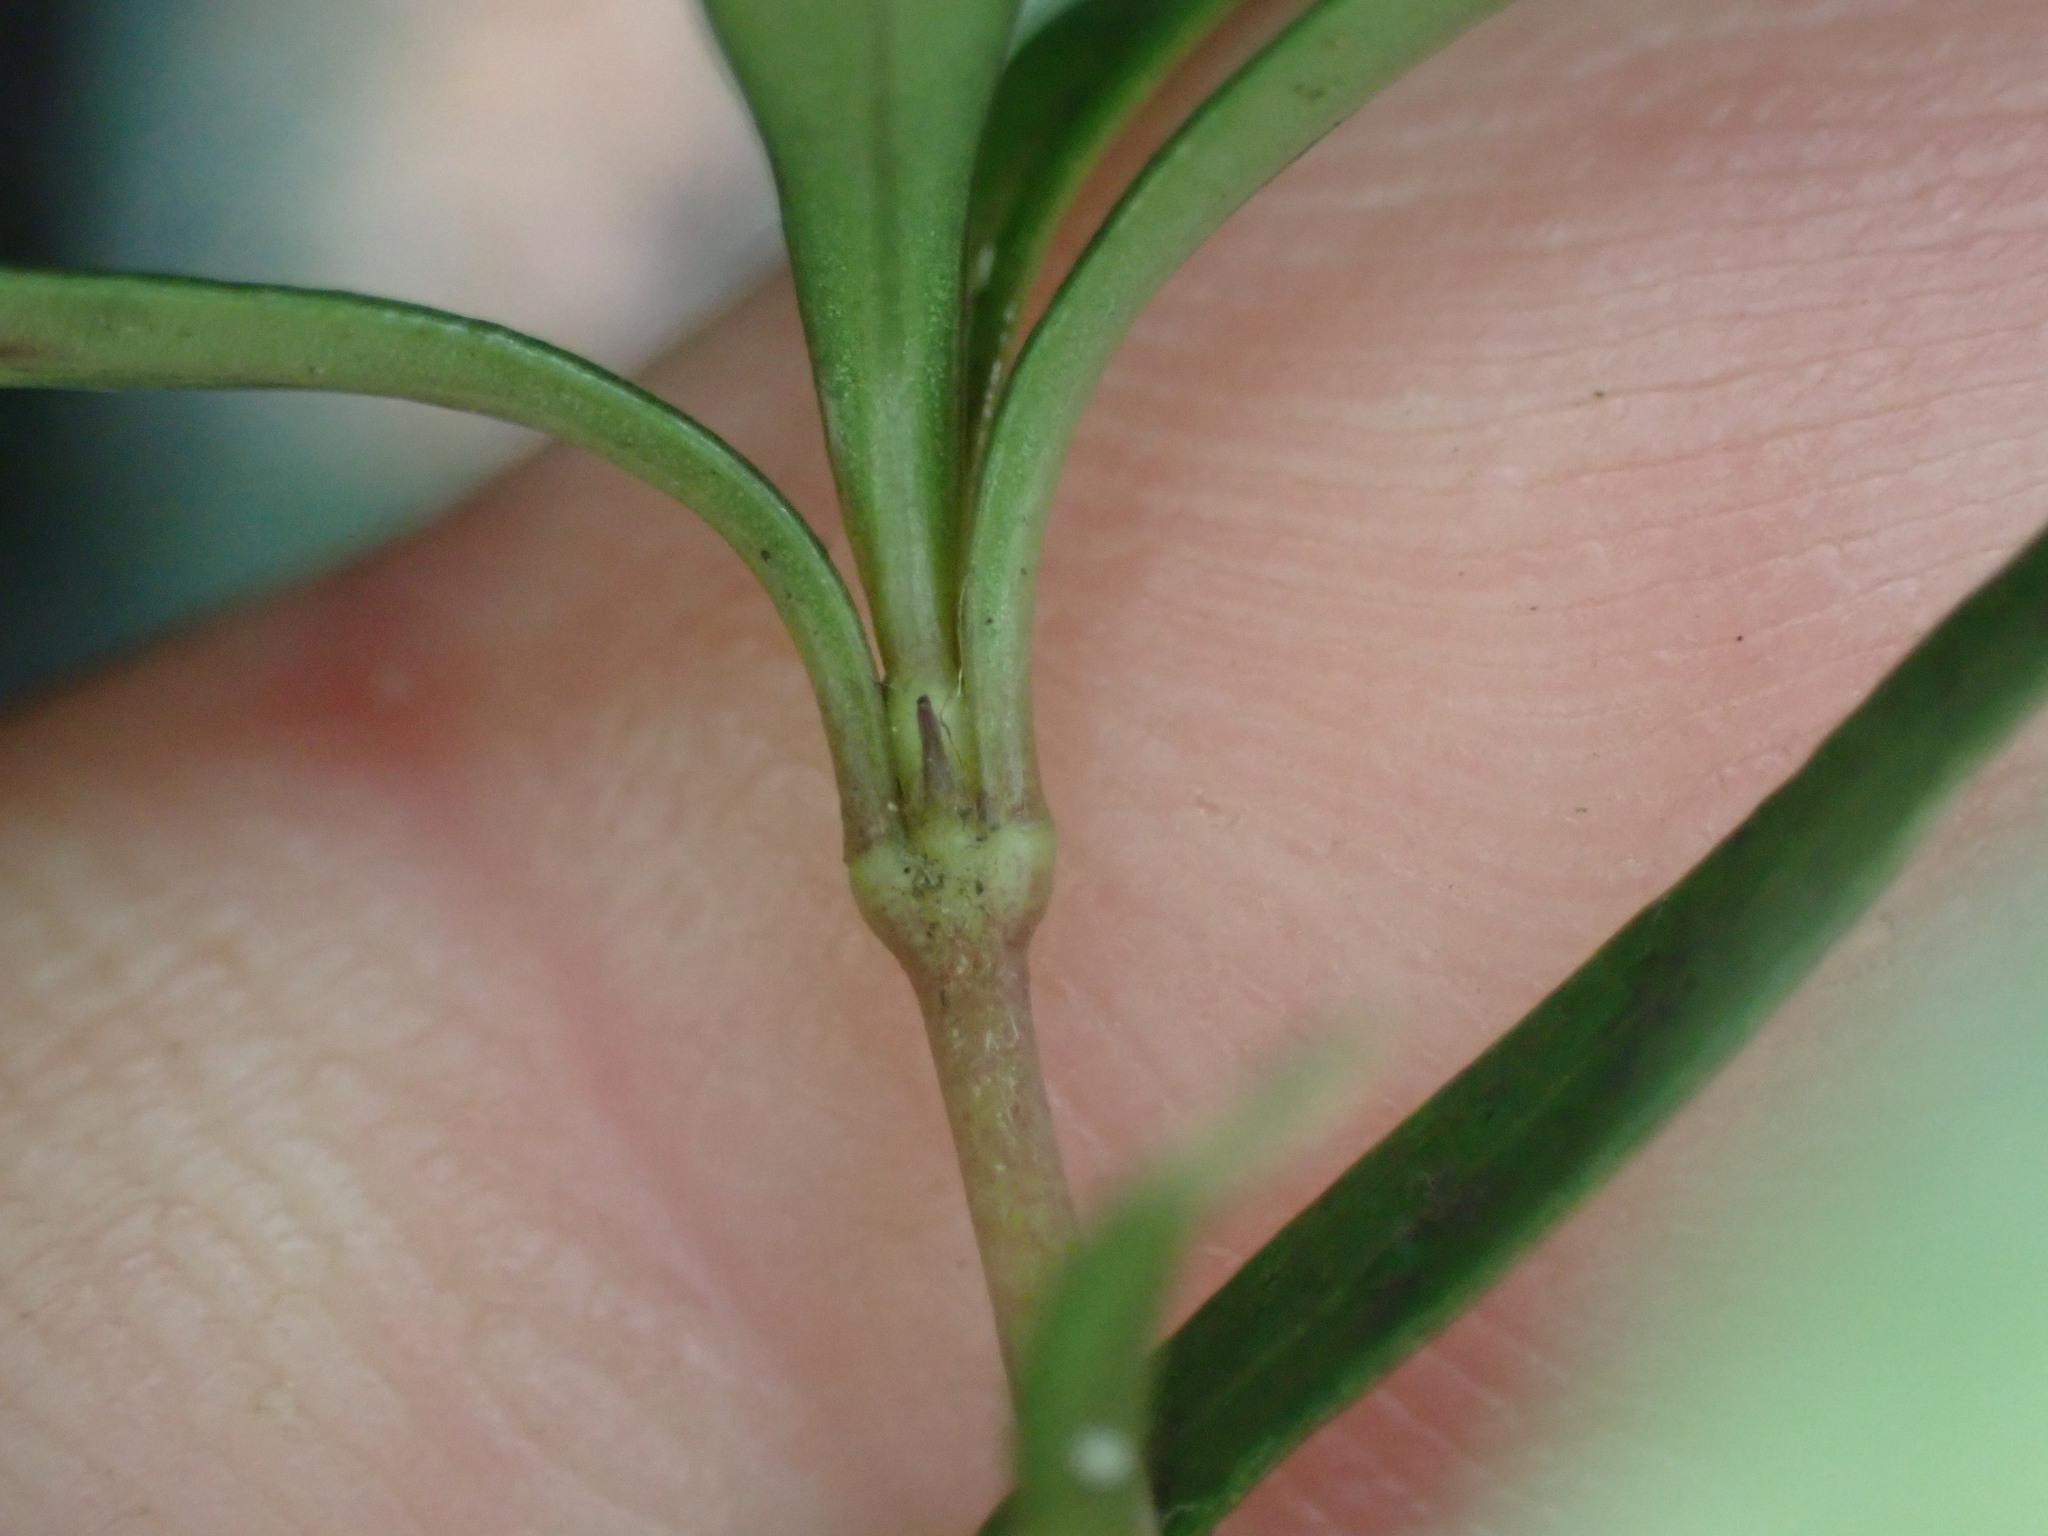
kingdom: Plantae
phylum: Tracheophyta
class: Magnoliopsida
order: Gentianales
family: Rubiaceae
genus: Coprosma
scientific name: Coprosma linariifolia
